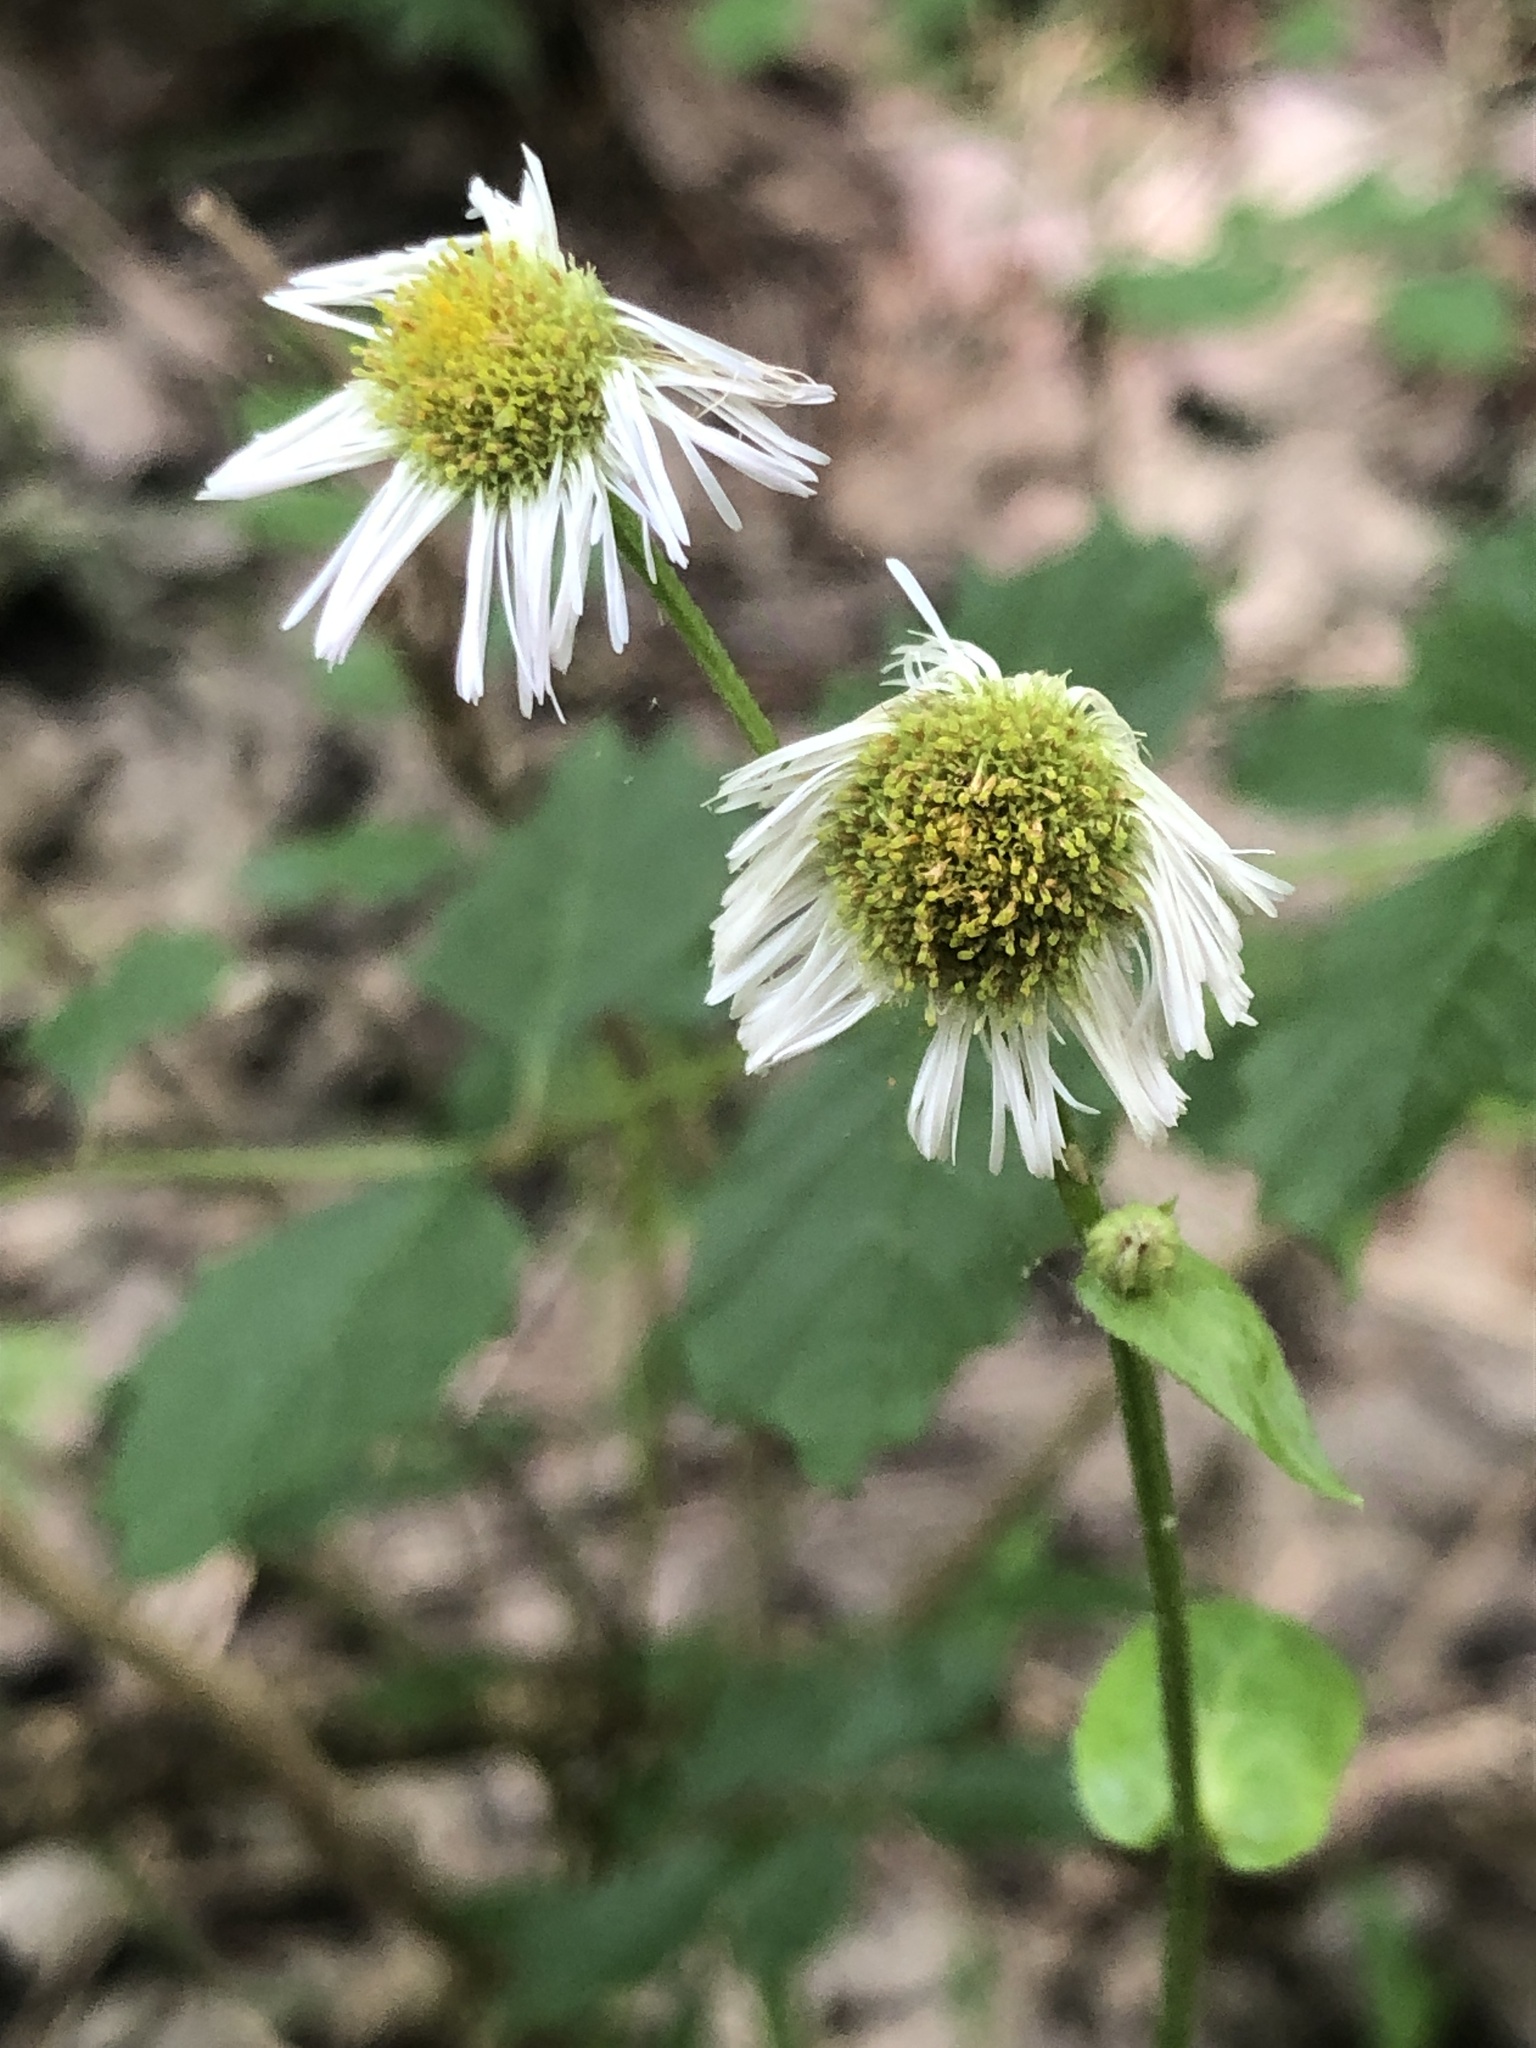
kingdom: Plantae
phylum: Tracheophyta
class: Magnoliopsida
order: Asterales
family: Asteraceae
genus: Erigeron
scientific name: Erigeron philadelphicus
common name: Robin's-plantain
